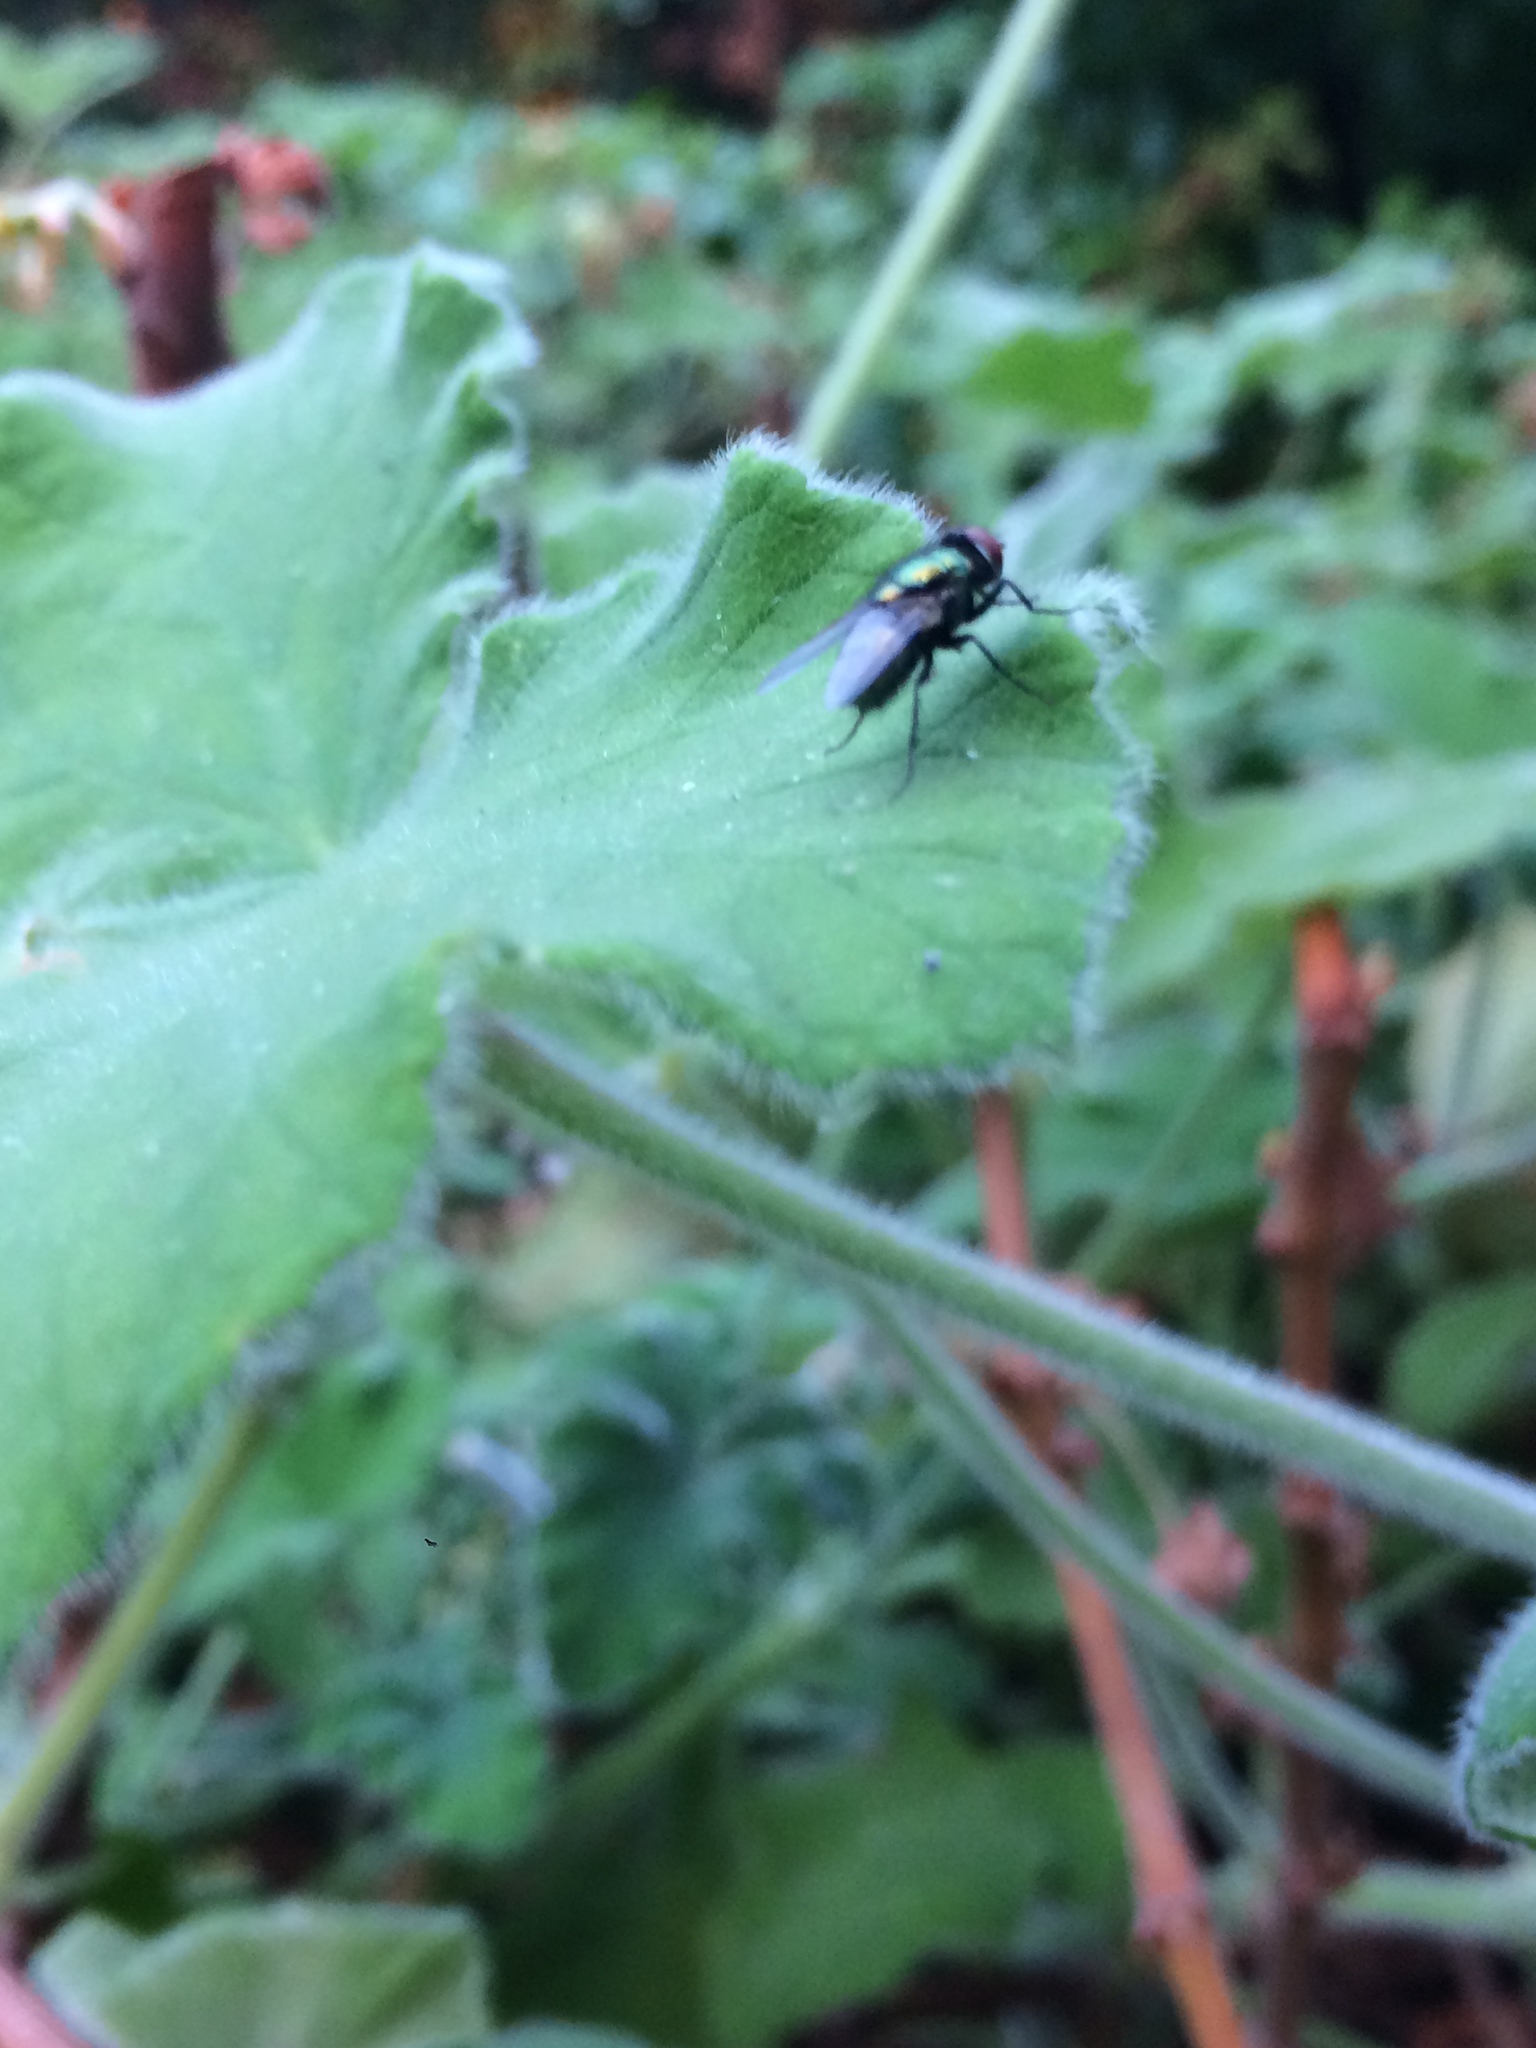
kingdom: Animalia
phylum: Arthropoda
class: Insecta
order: Diptera
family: Calliphoridae
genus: Lucilia
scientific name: Lucilia sericata
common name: Blow fly
